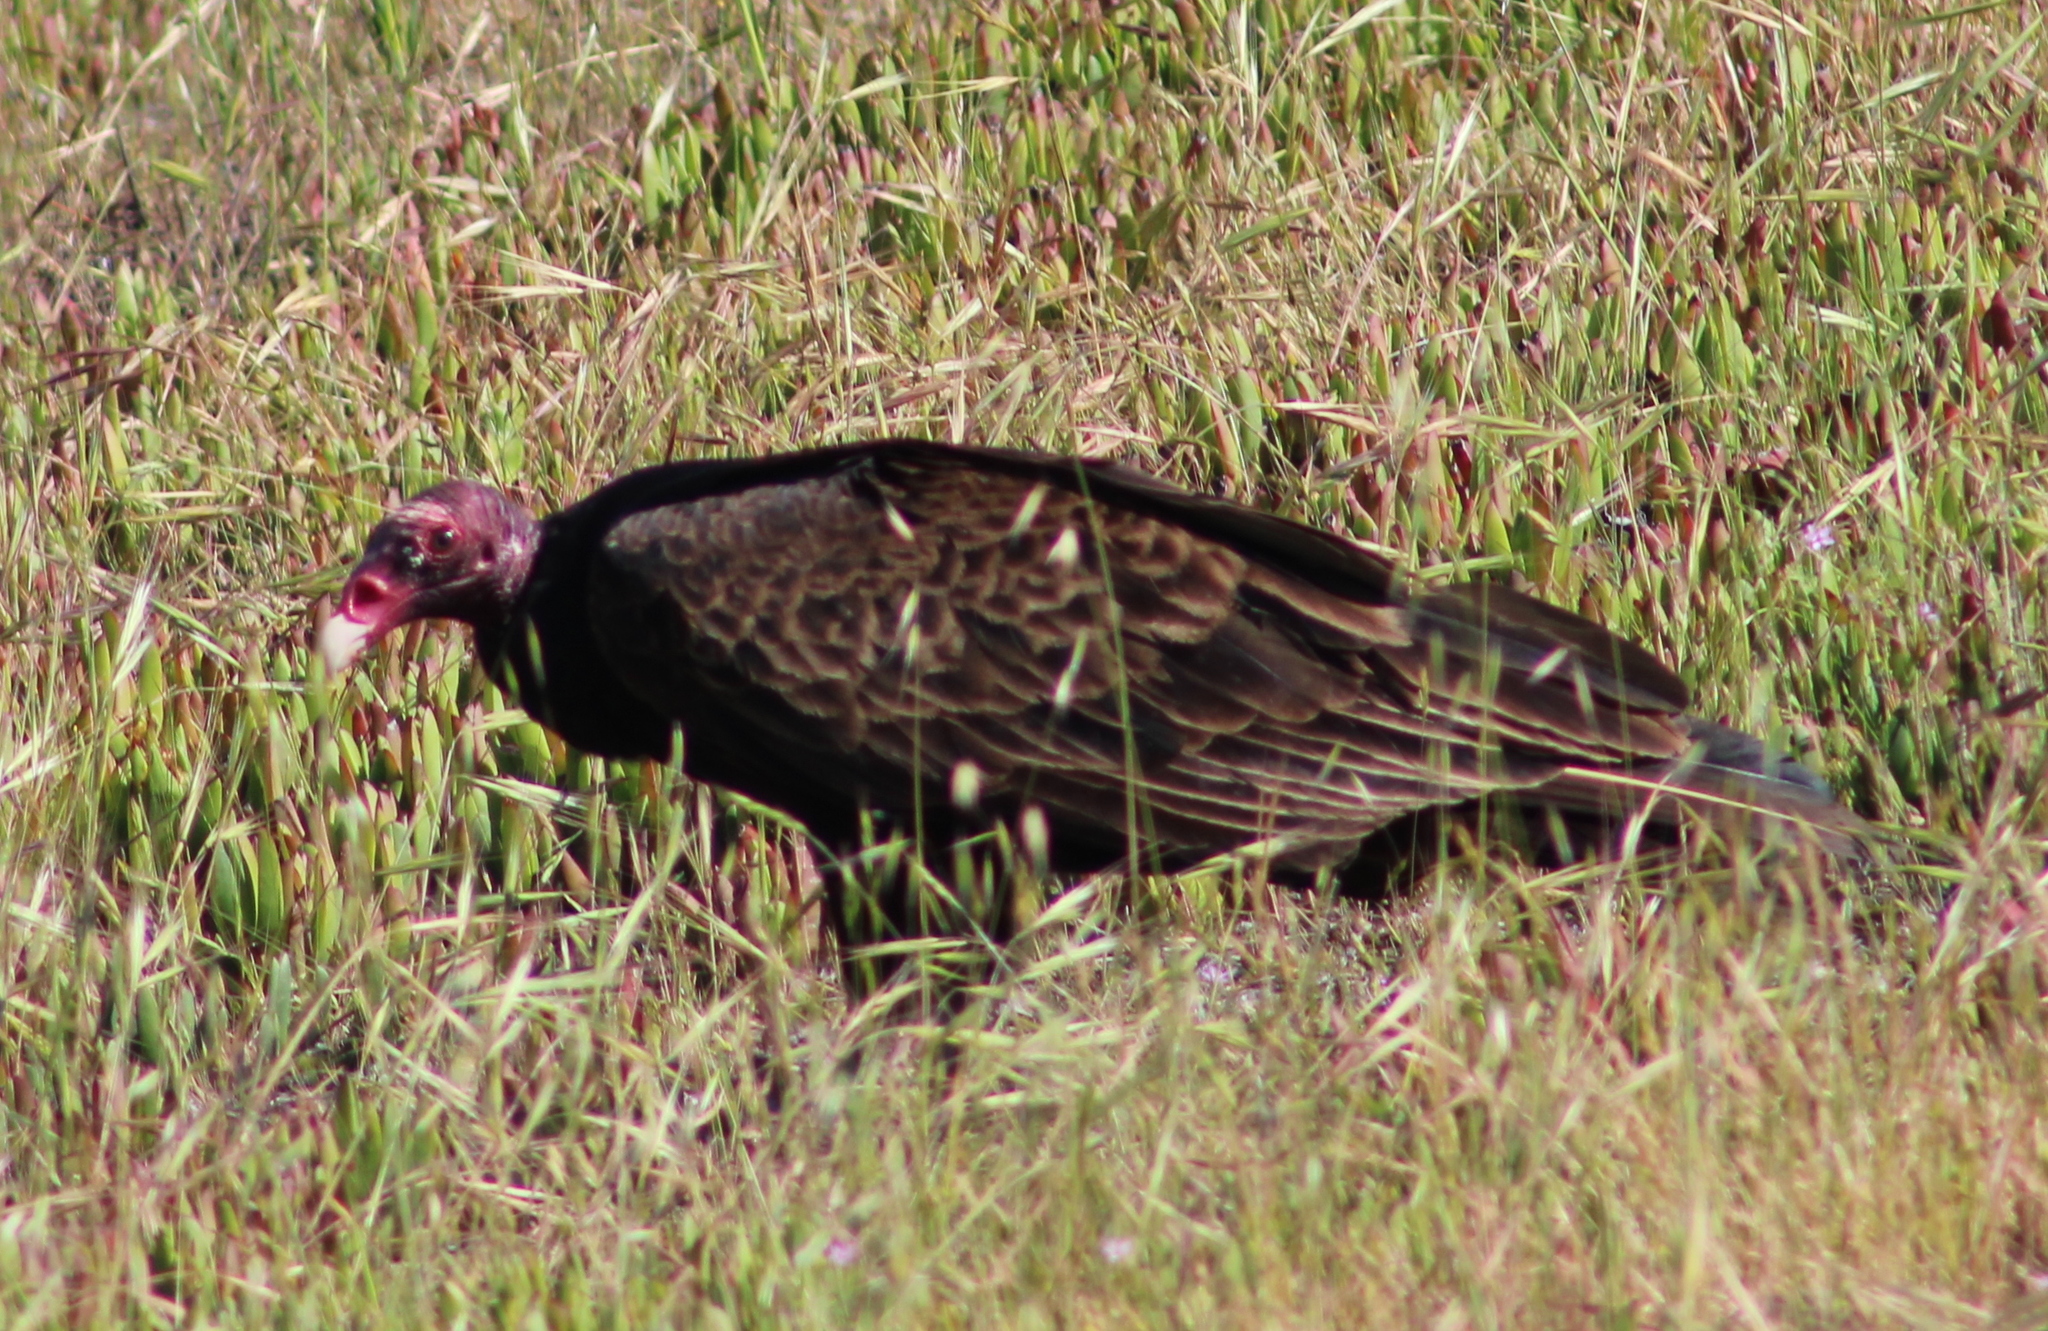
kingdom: Animalia
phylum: Chordata
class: Aves
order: Accipitriformes
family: Cathartidae
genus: Cathartes
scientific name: Cathartes aura
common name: Turkey vulture
